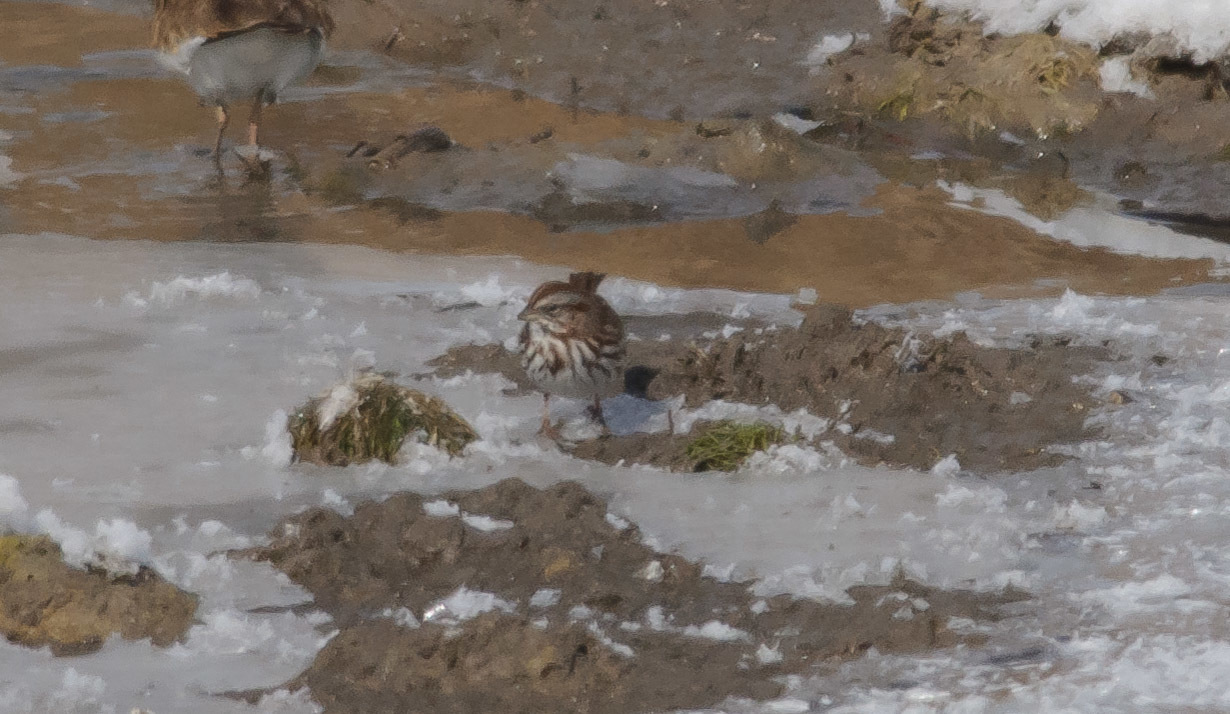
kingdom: Animalia
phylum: Chordata
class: Aves
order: Passeriformes
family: Passerellidae
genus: Melospiza
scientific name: Melospiza melodia
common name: Song sparrow
